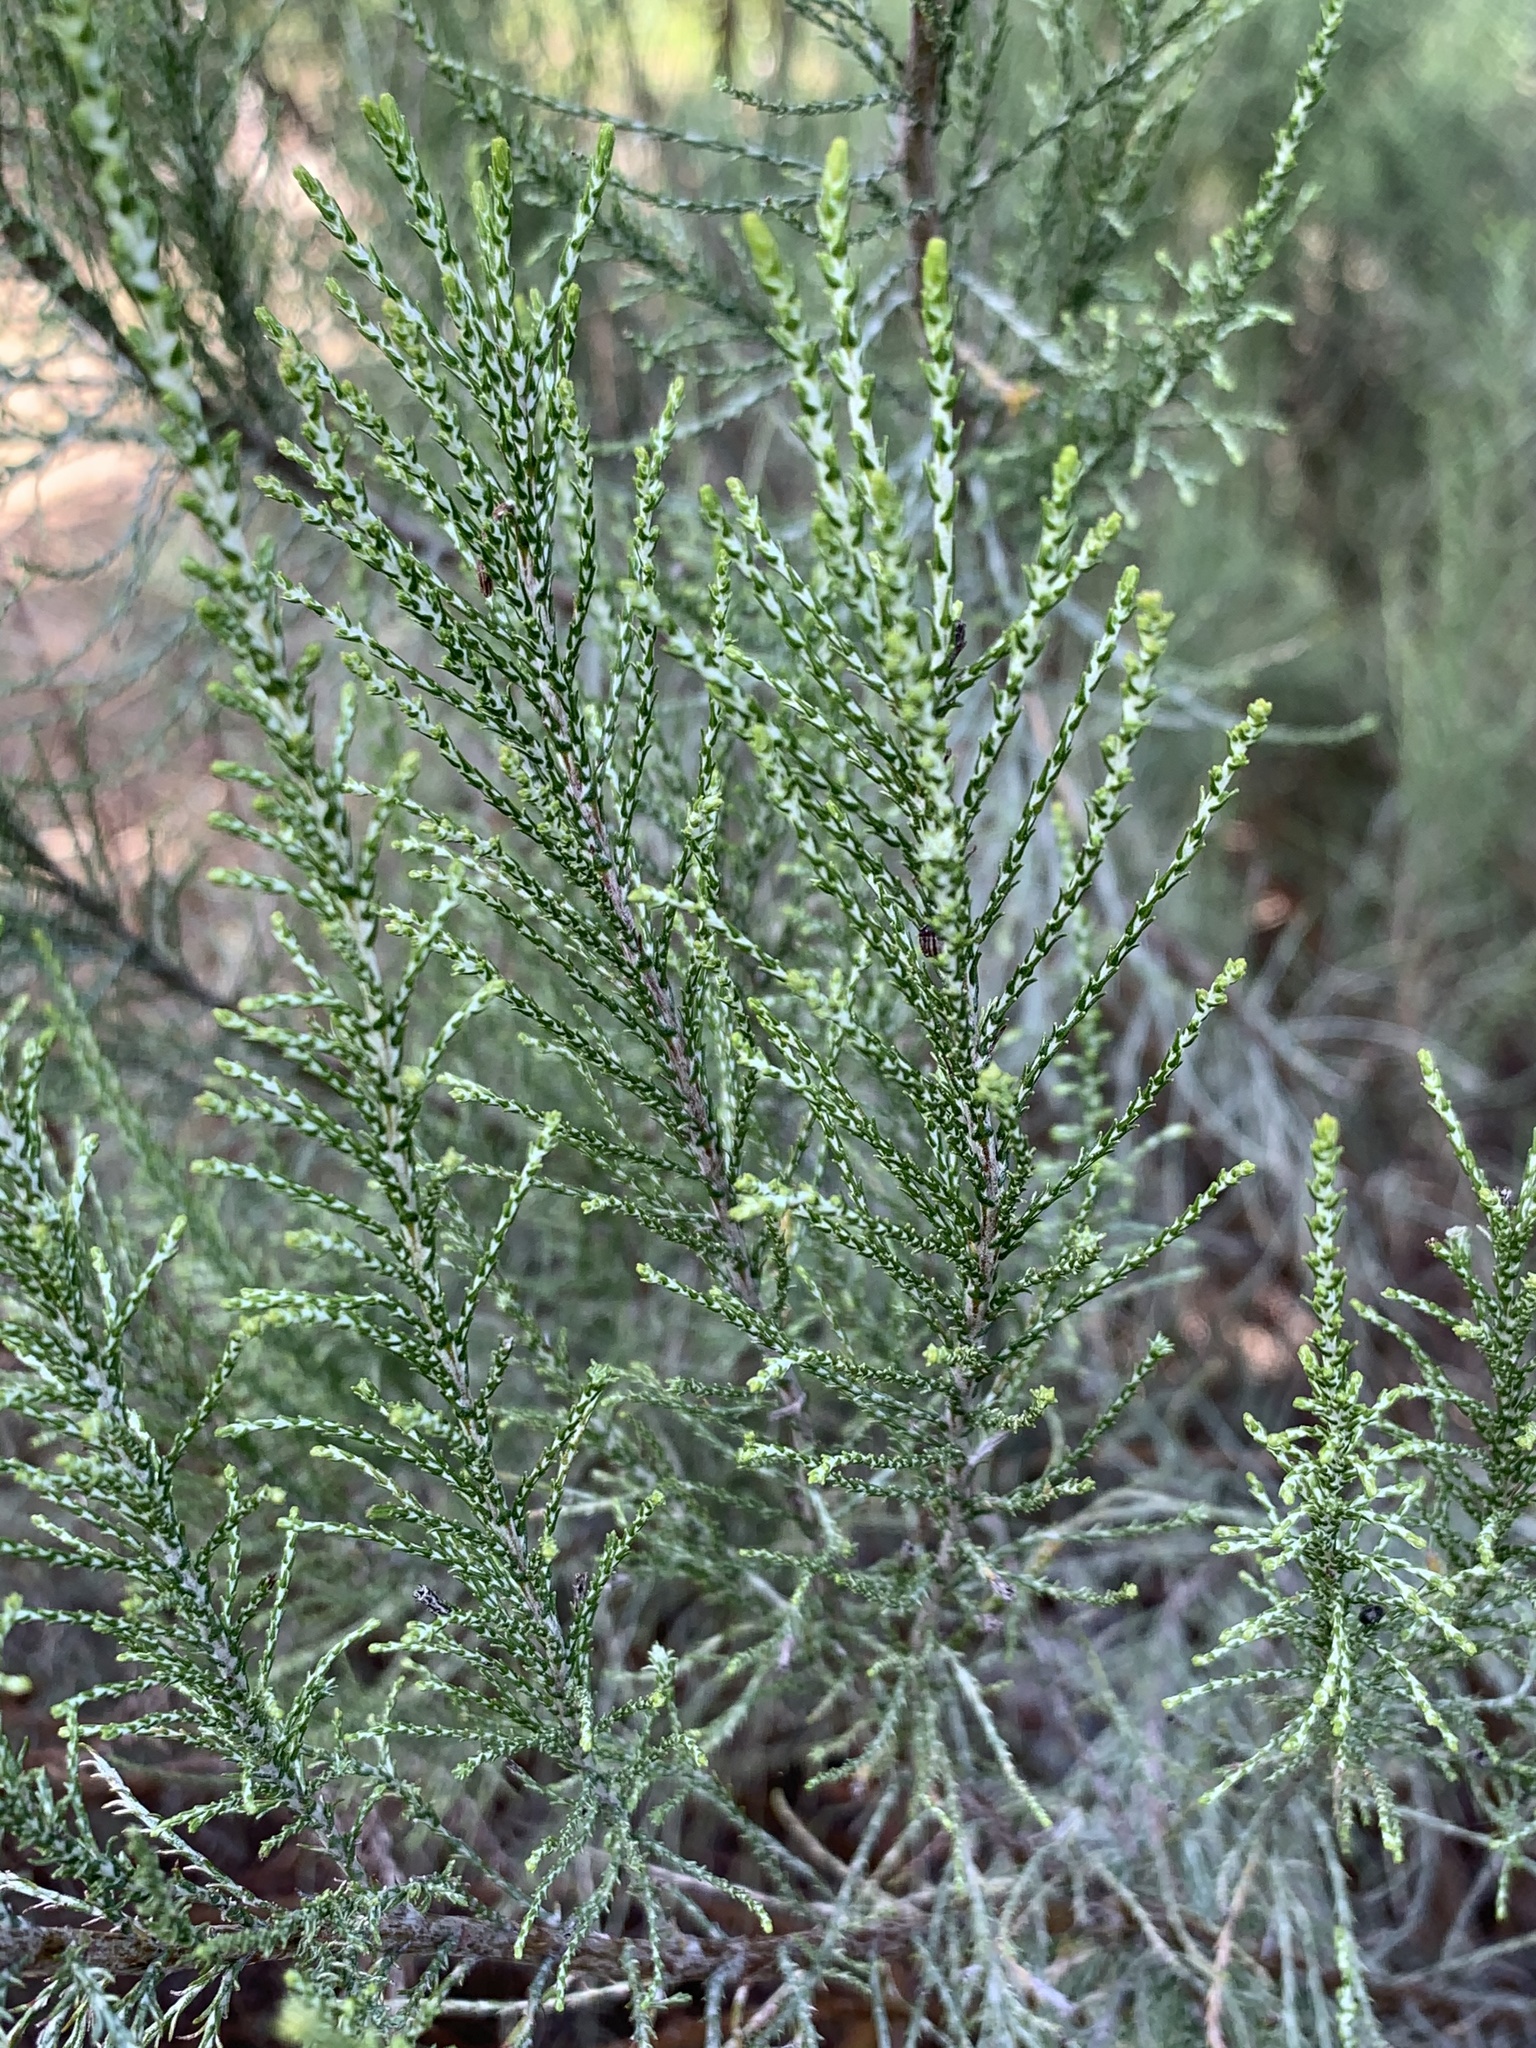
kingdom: Plantae
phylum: Tracheophyta
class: Magnoliopsida
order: Asterales
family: Asteraceae
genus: Dicerothamnus
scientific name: Dicerothamnus rhinocerotis
